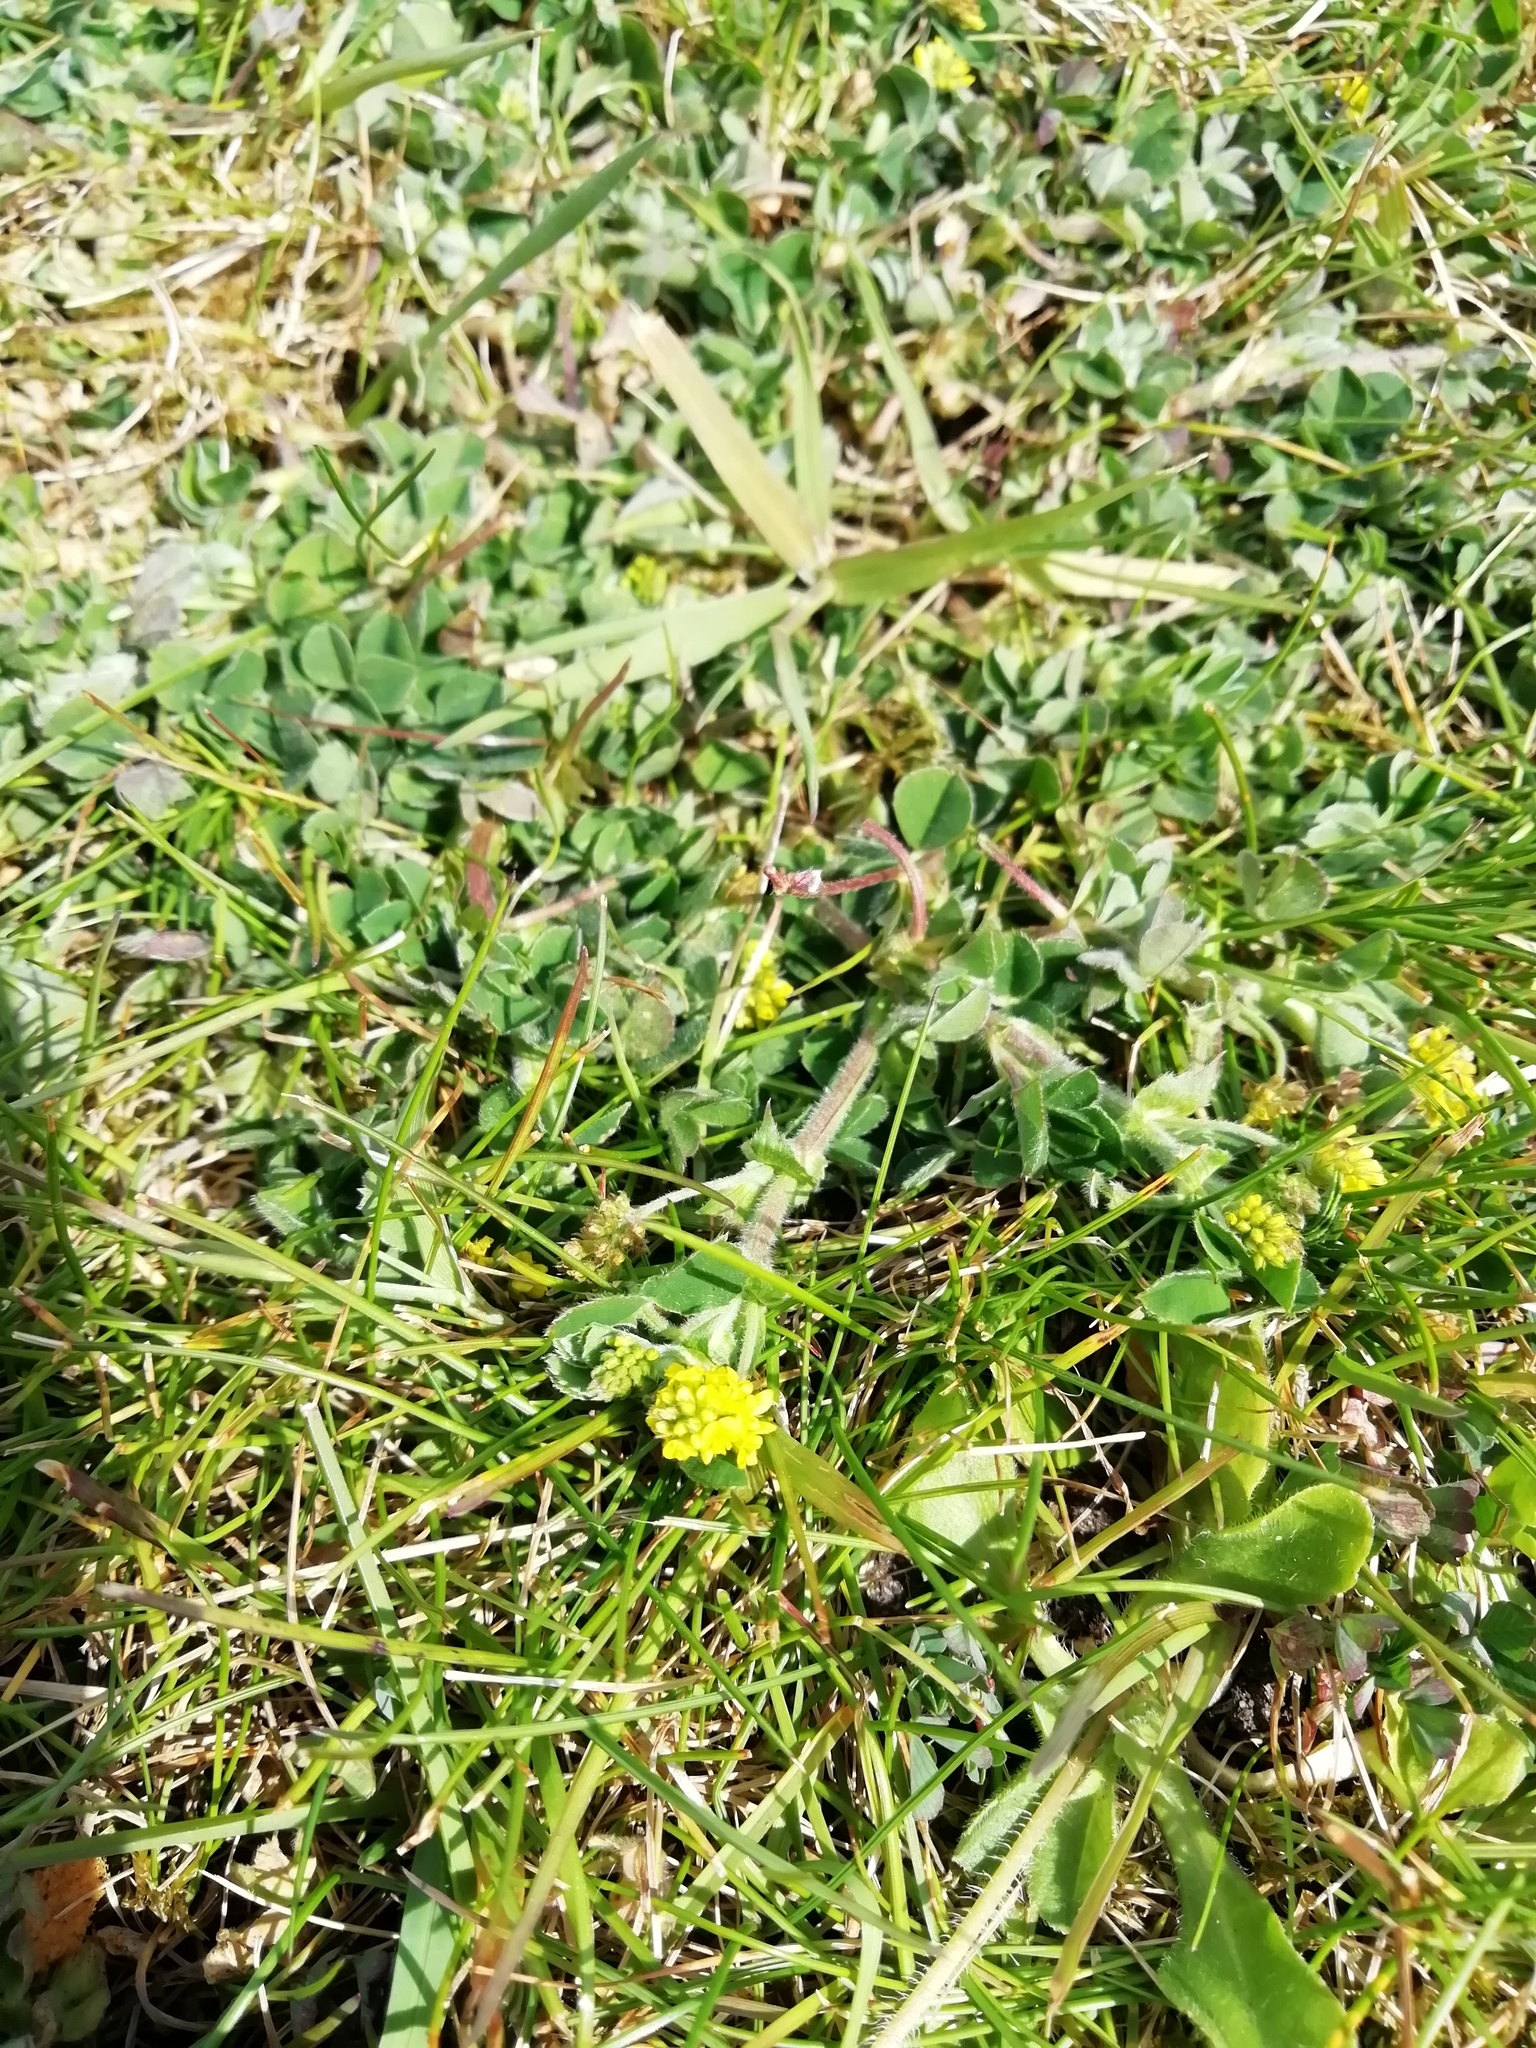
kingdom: Plantae
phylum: Tracheophyta
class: Magnoliopsida
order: Fabales
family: Fabaceae
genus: Medicago
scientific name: Medicago lupulina
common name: Black medick
